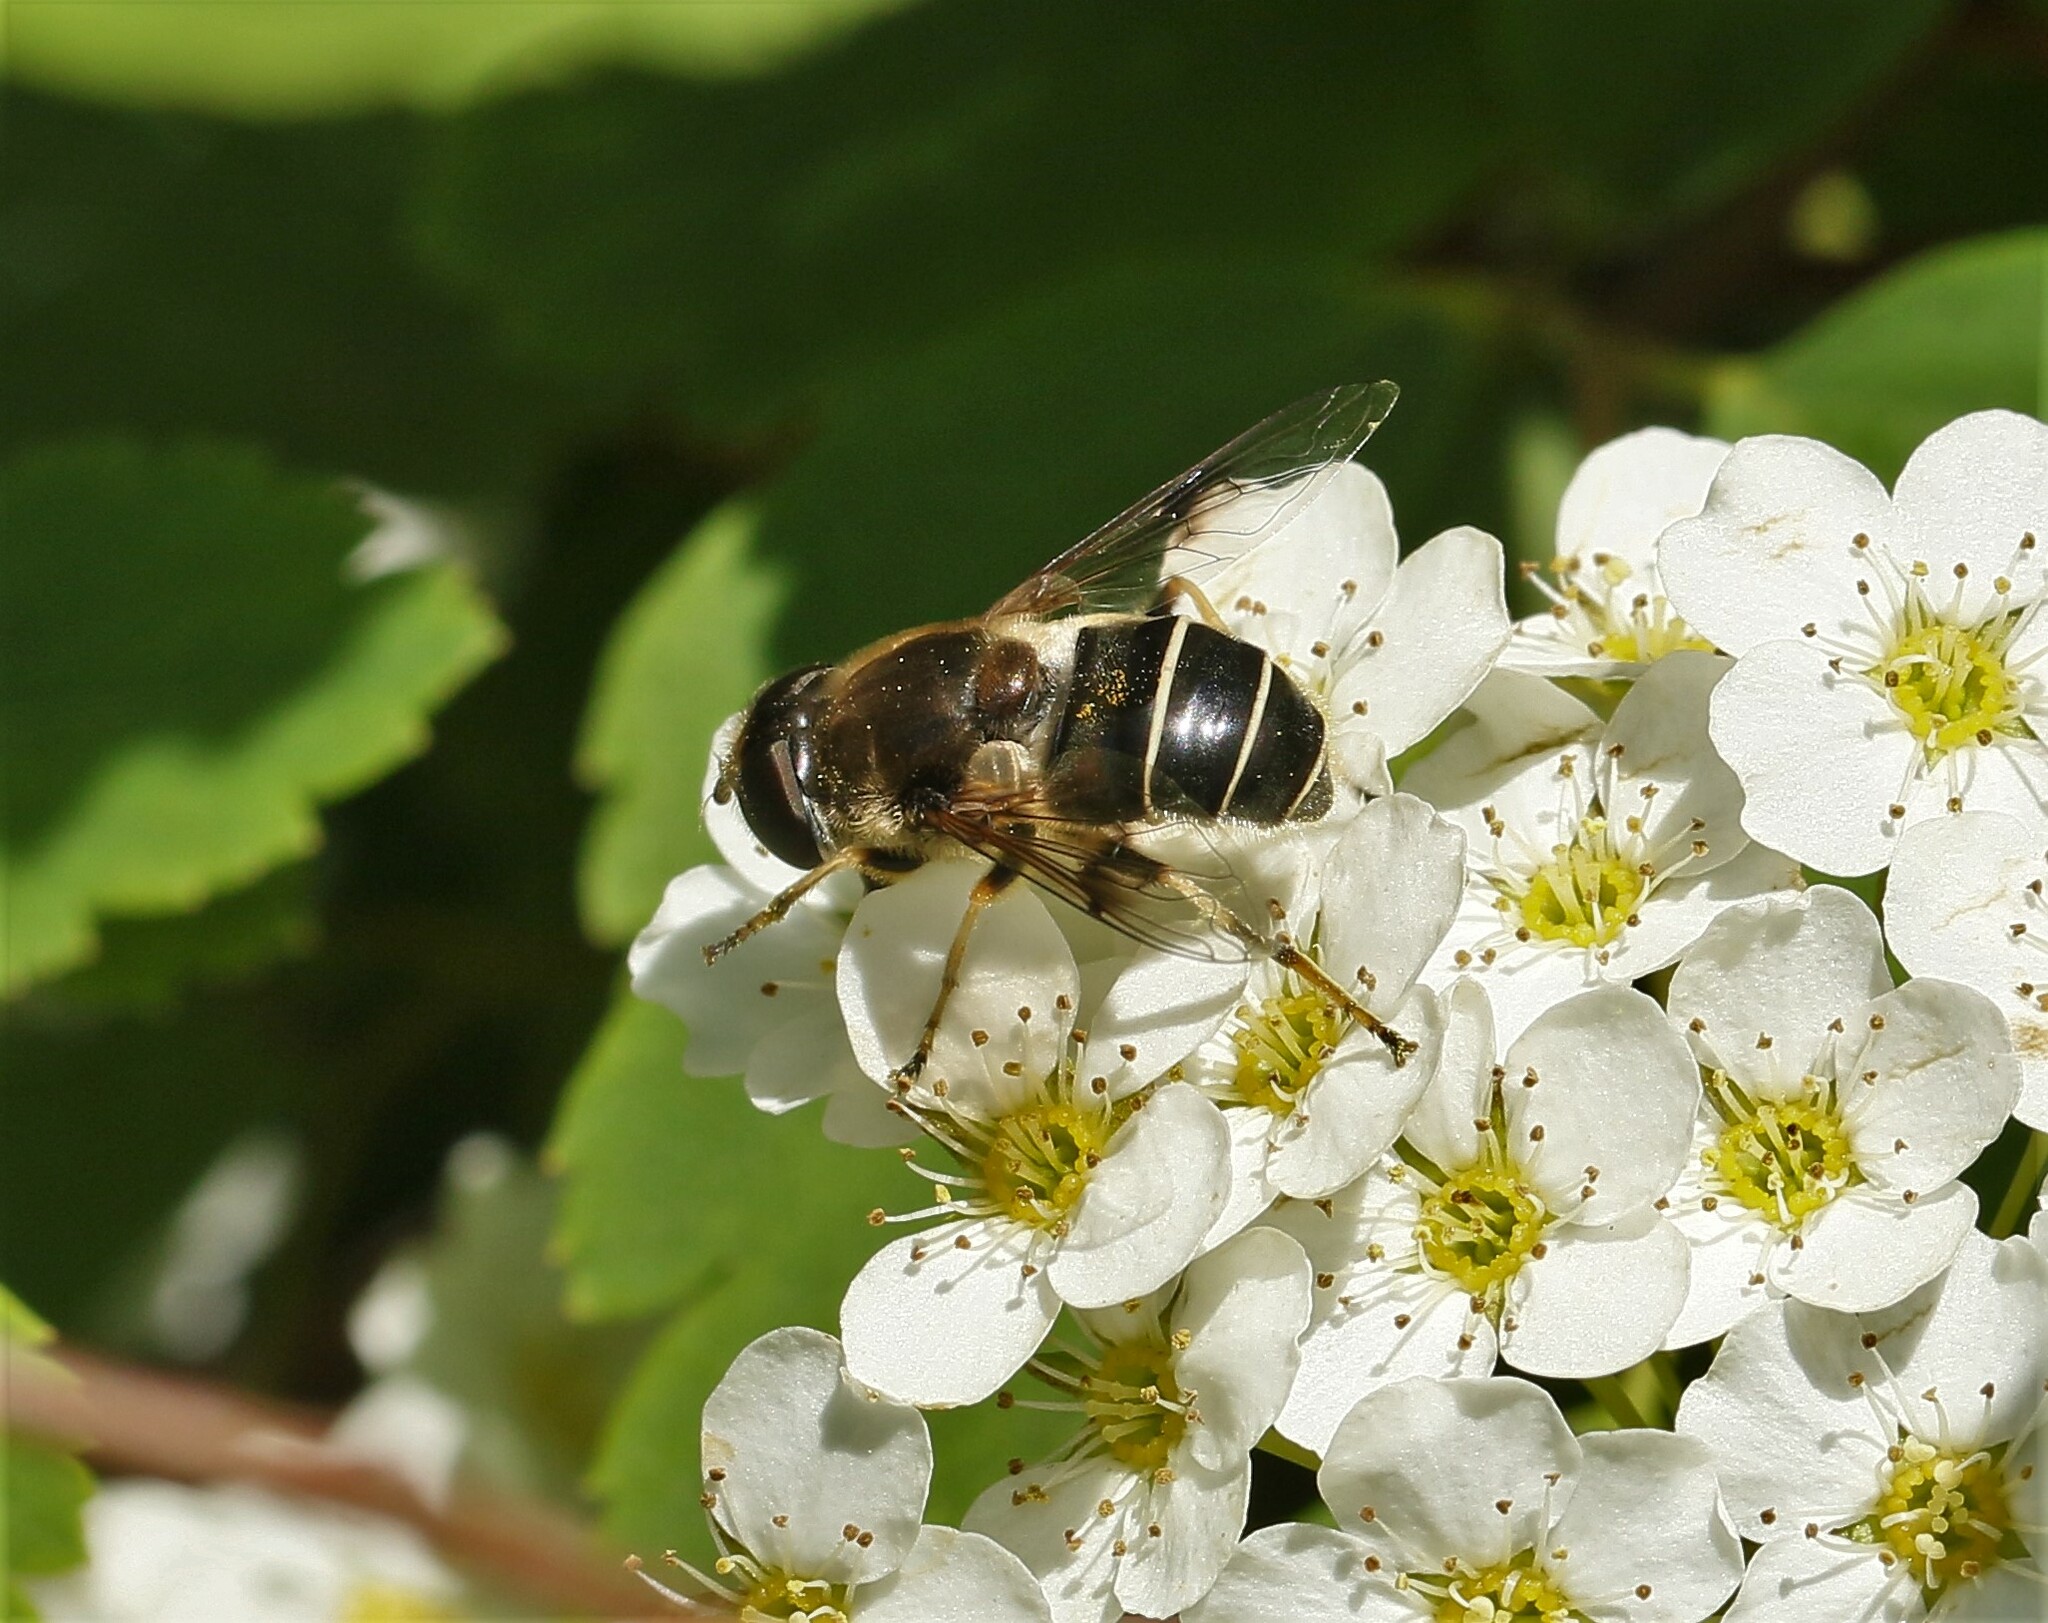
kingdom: Animalia
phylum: Arthropoda
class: Insecta
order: Diptera
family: Syrphidae
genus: Eristalis
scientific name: Eristalis obscura
